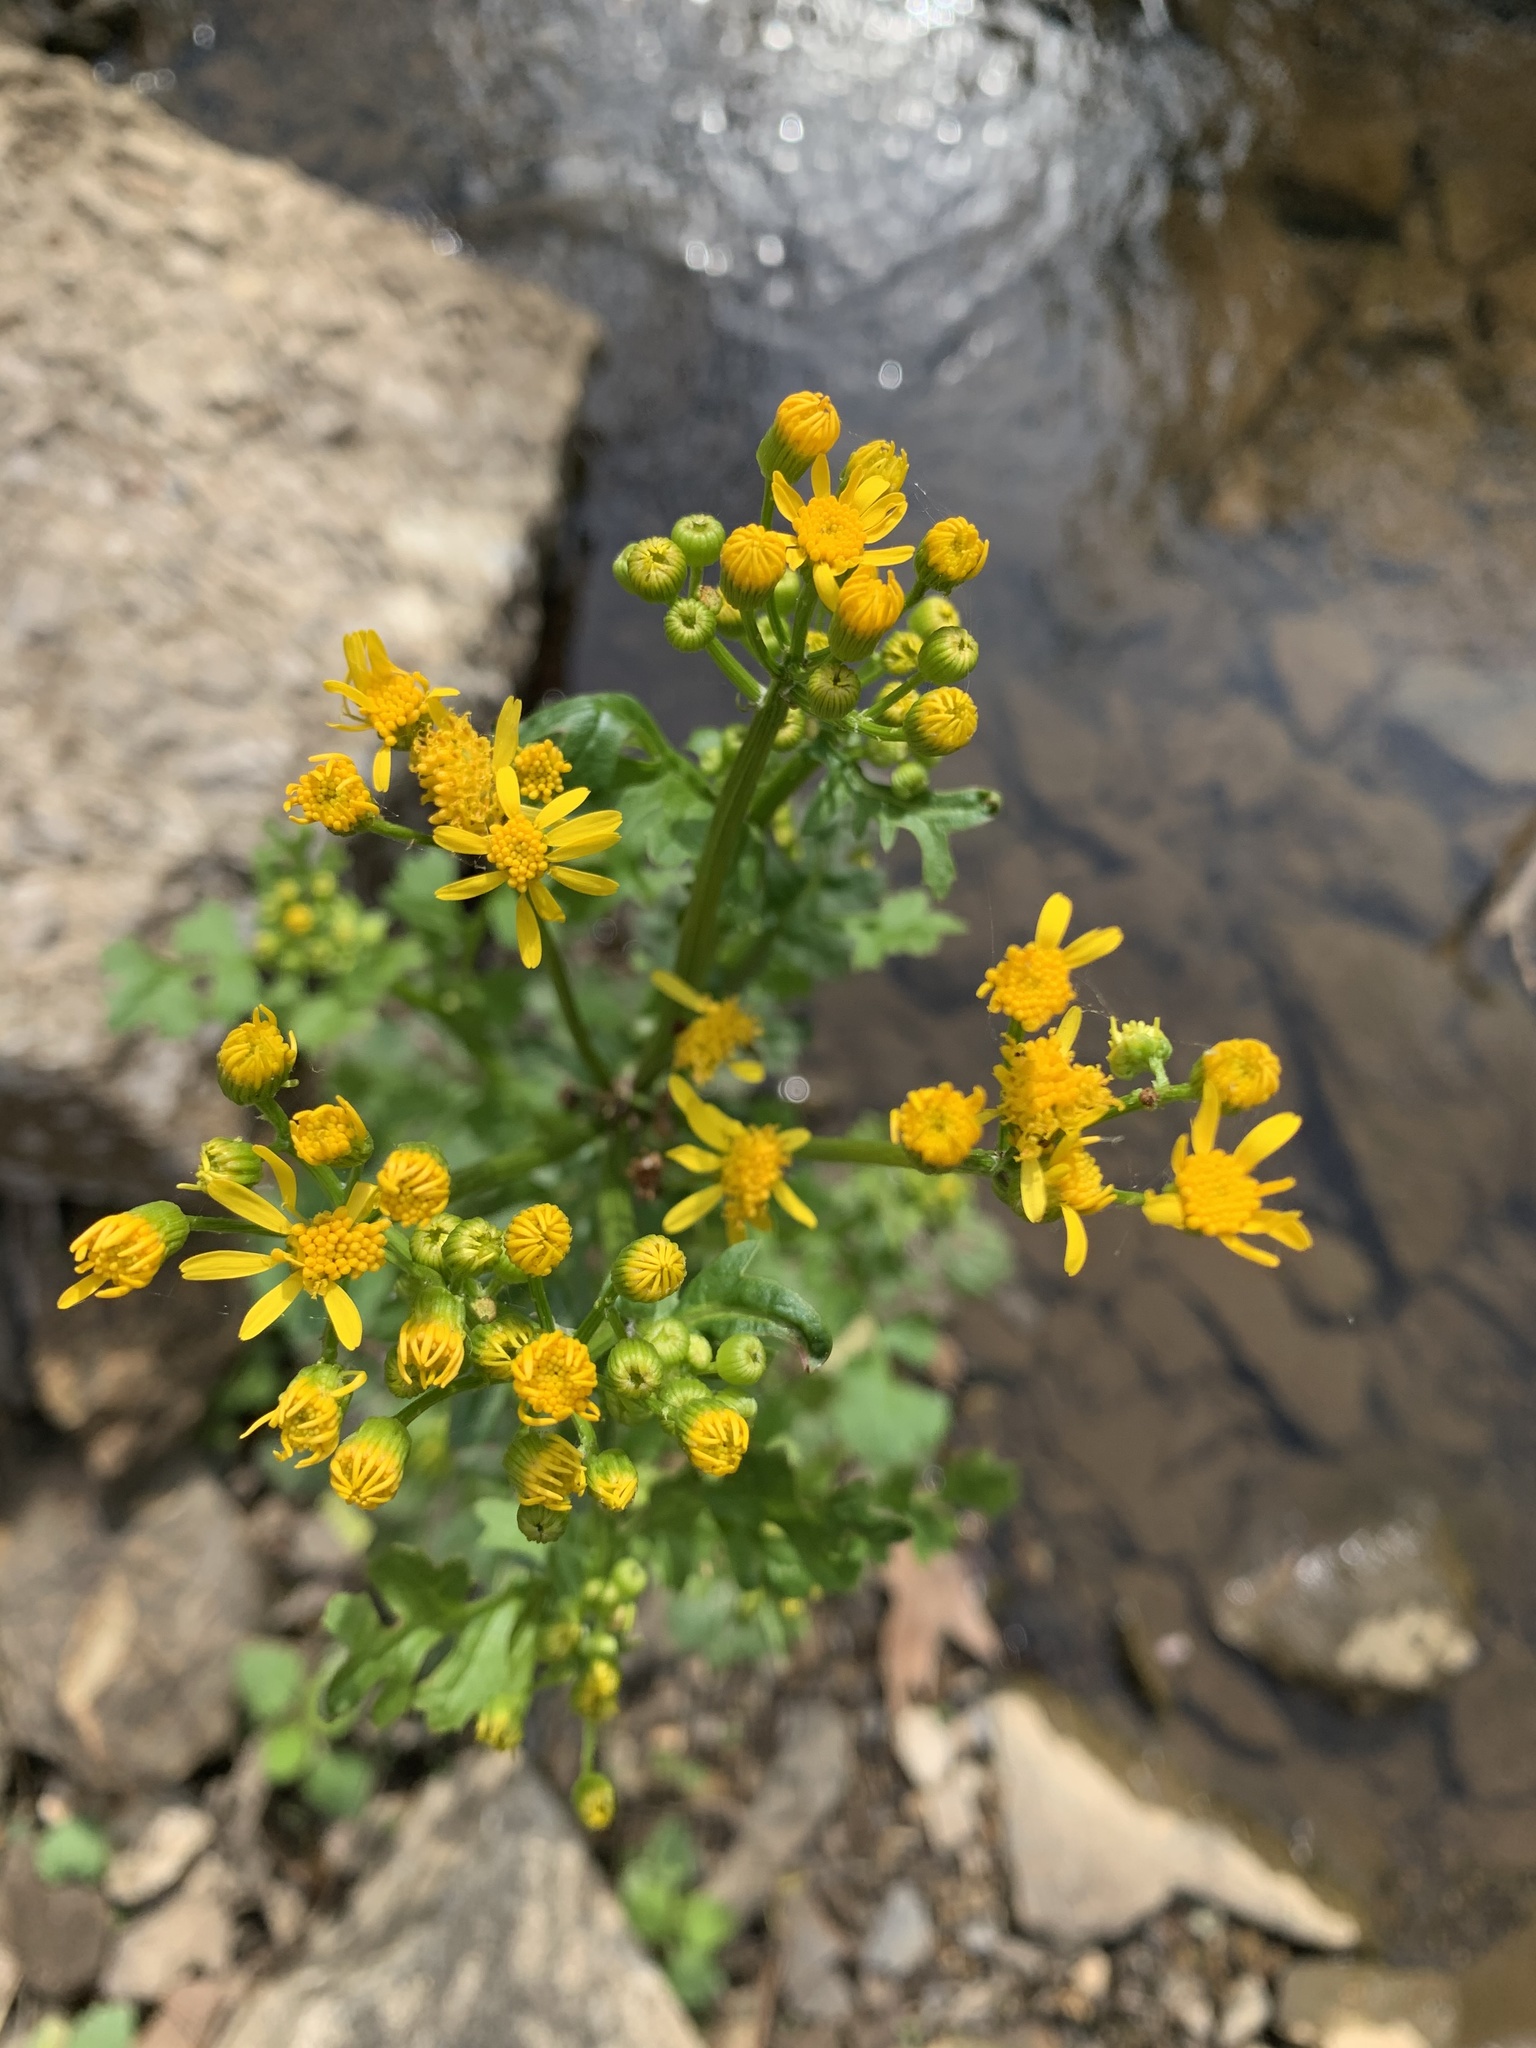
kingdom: Plantae
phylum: Tracheophyta
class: Magnoliopsida
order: Asterales
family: Asteraceae
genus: Packera
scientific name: Packera glabella
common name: Butterweed
